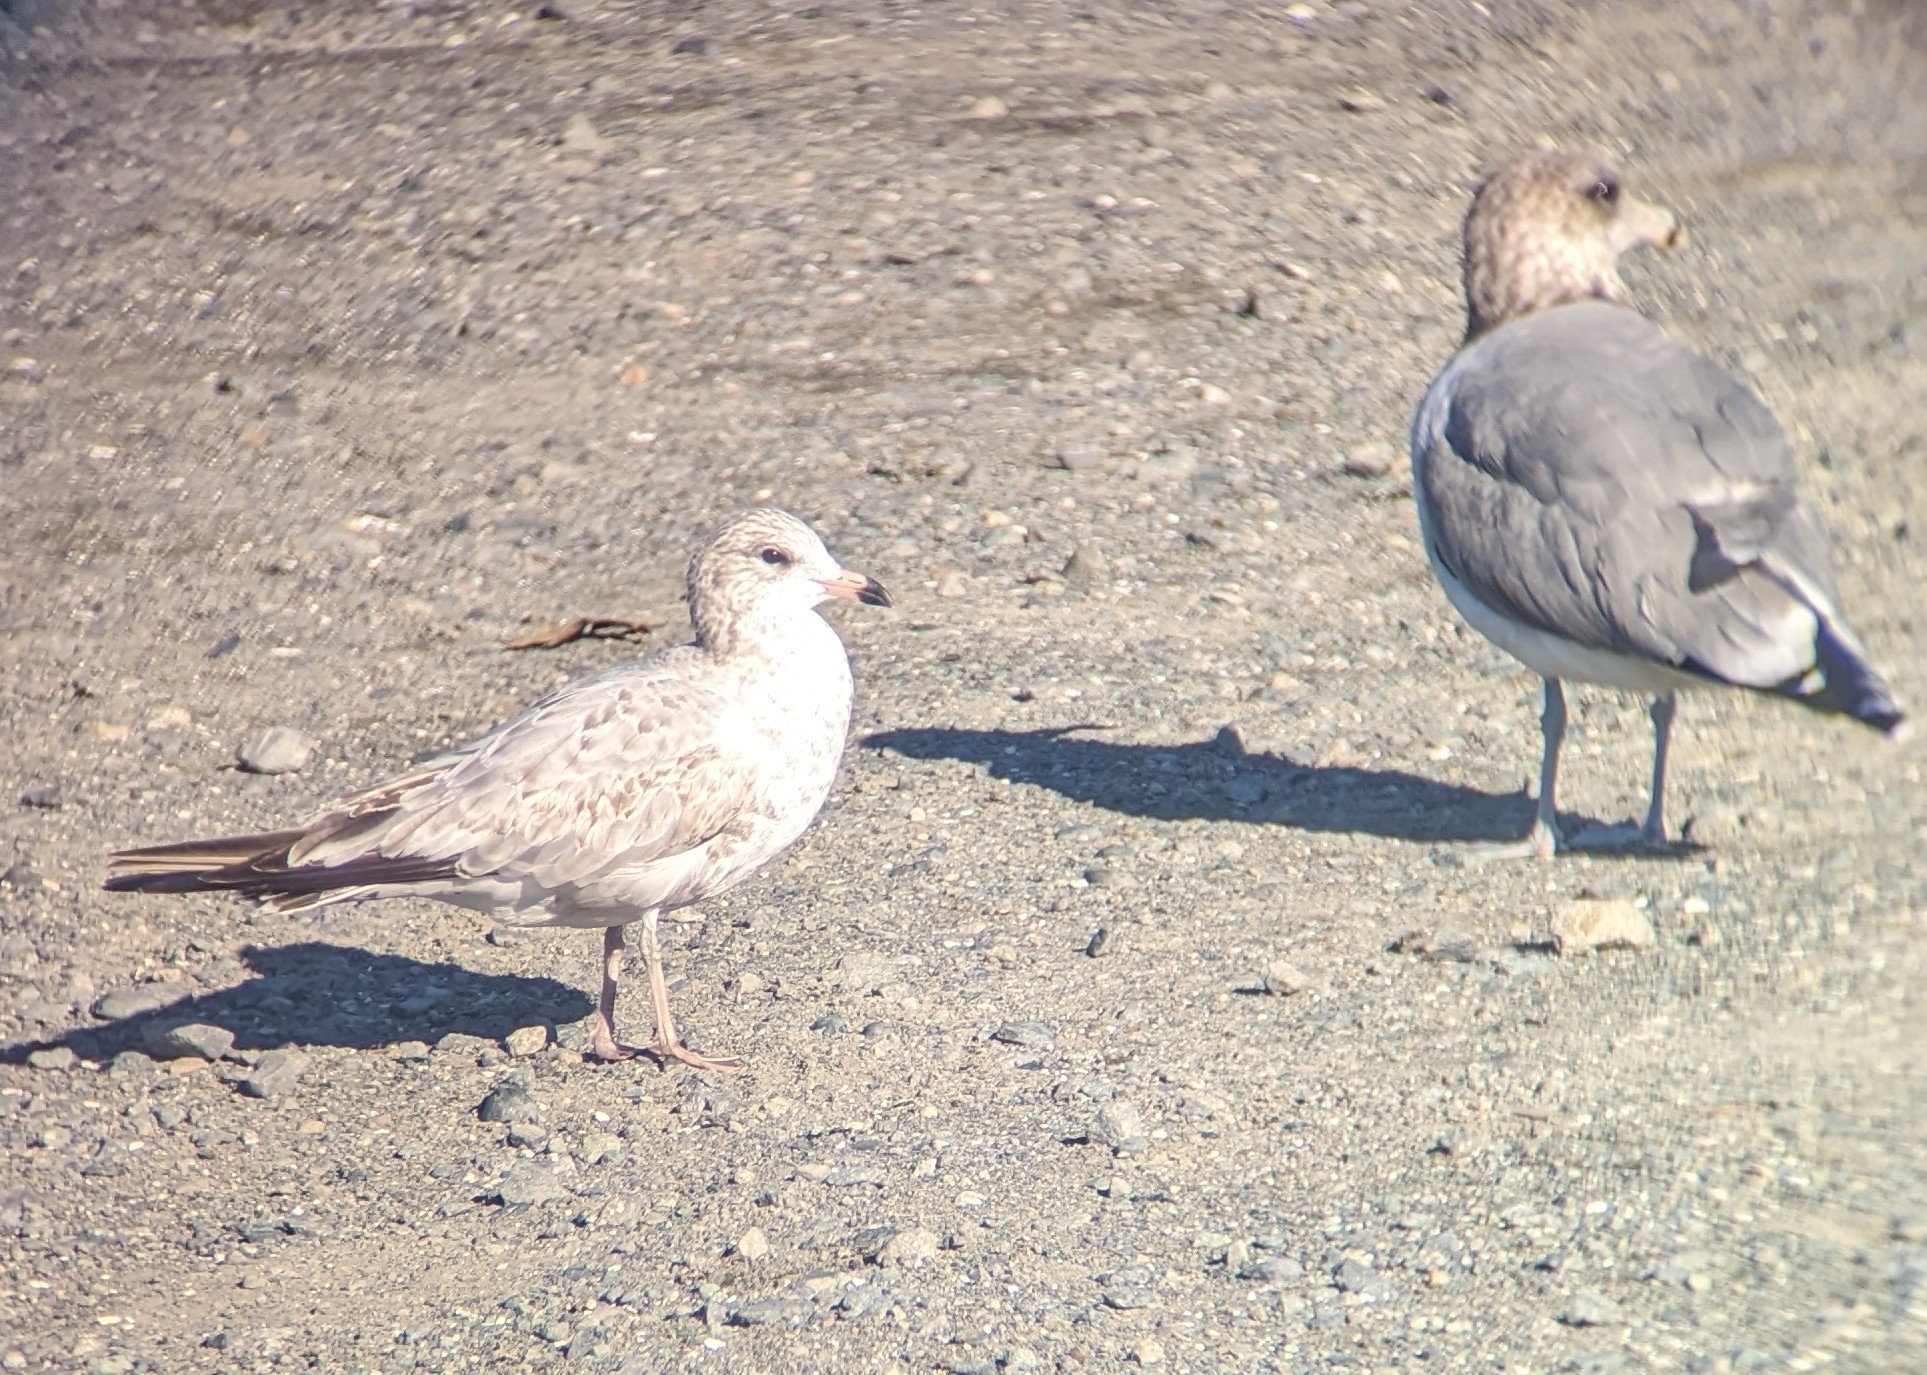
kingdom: Animalia
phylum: Chordata
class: Aves
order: Charadriiformes
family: Laridae
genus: Larus
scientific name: Larus brachyrhynchus
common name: Short-billed gull
